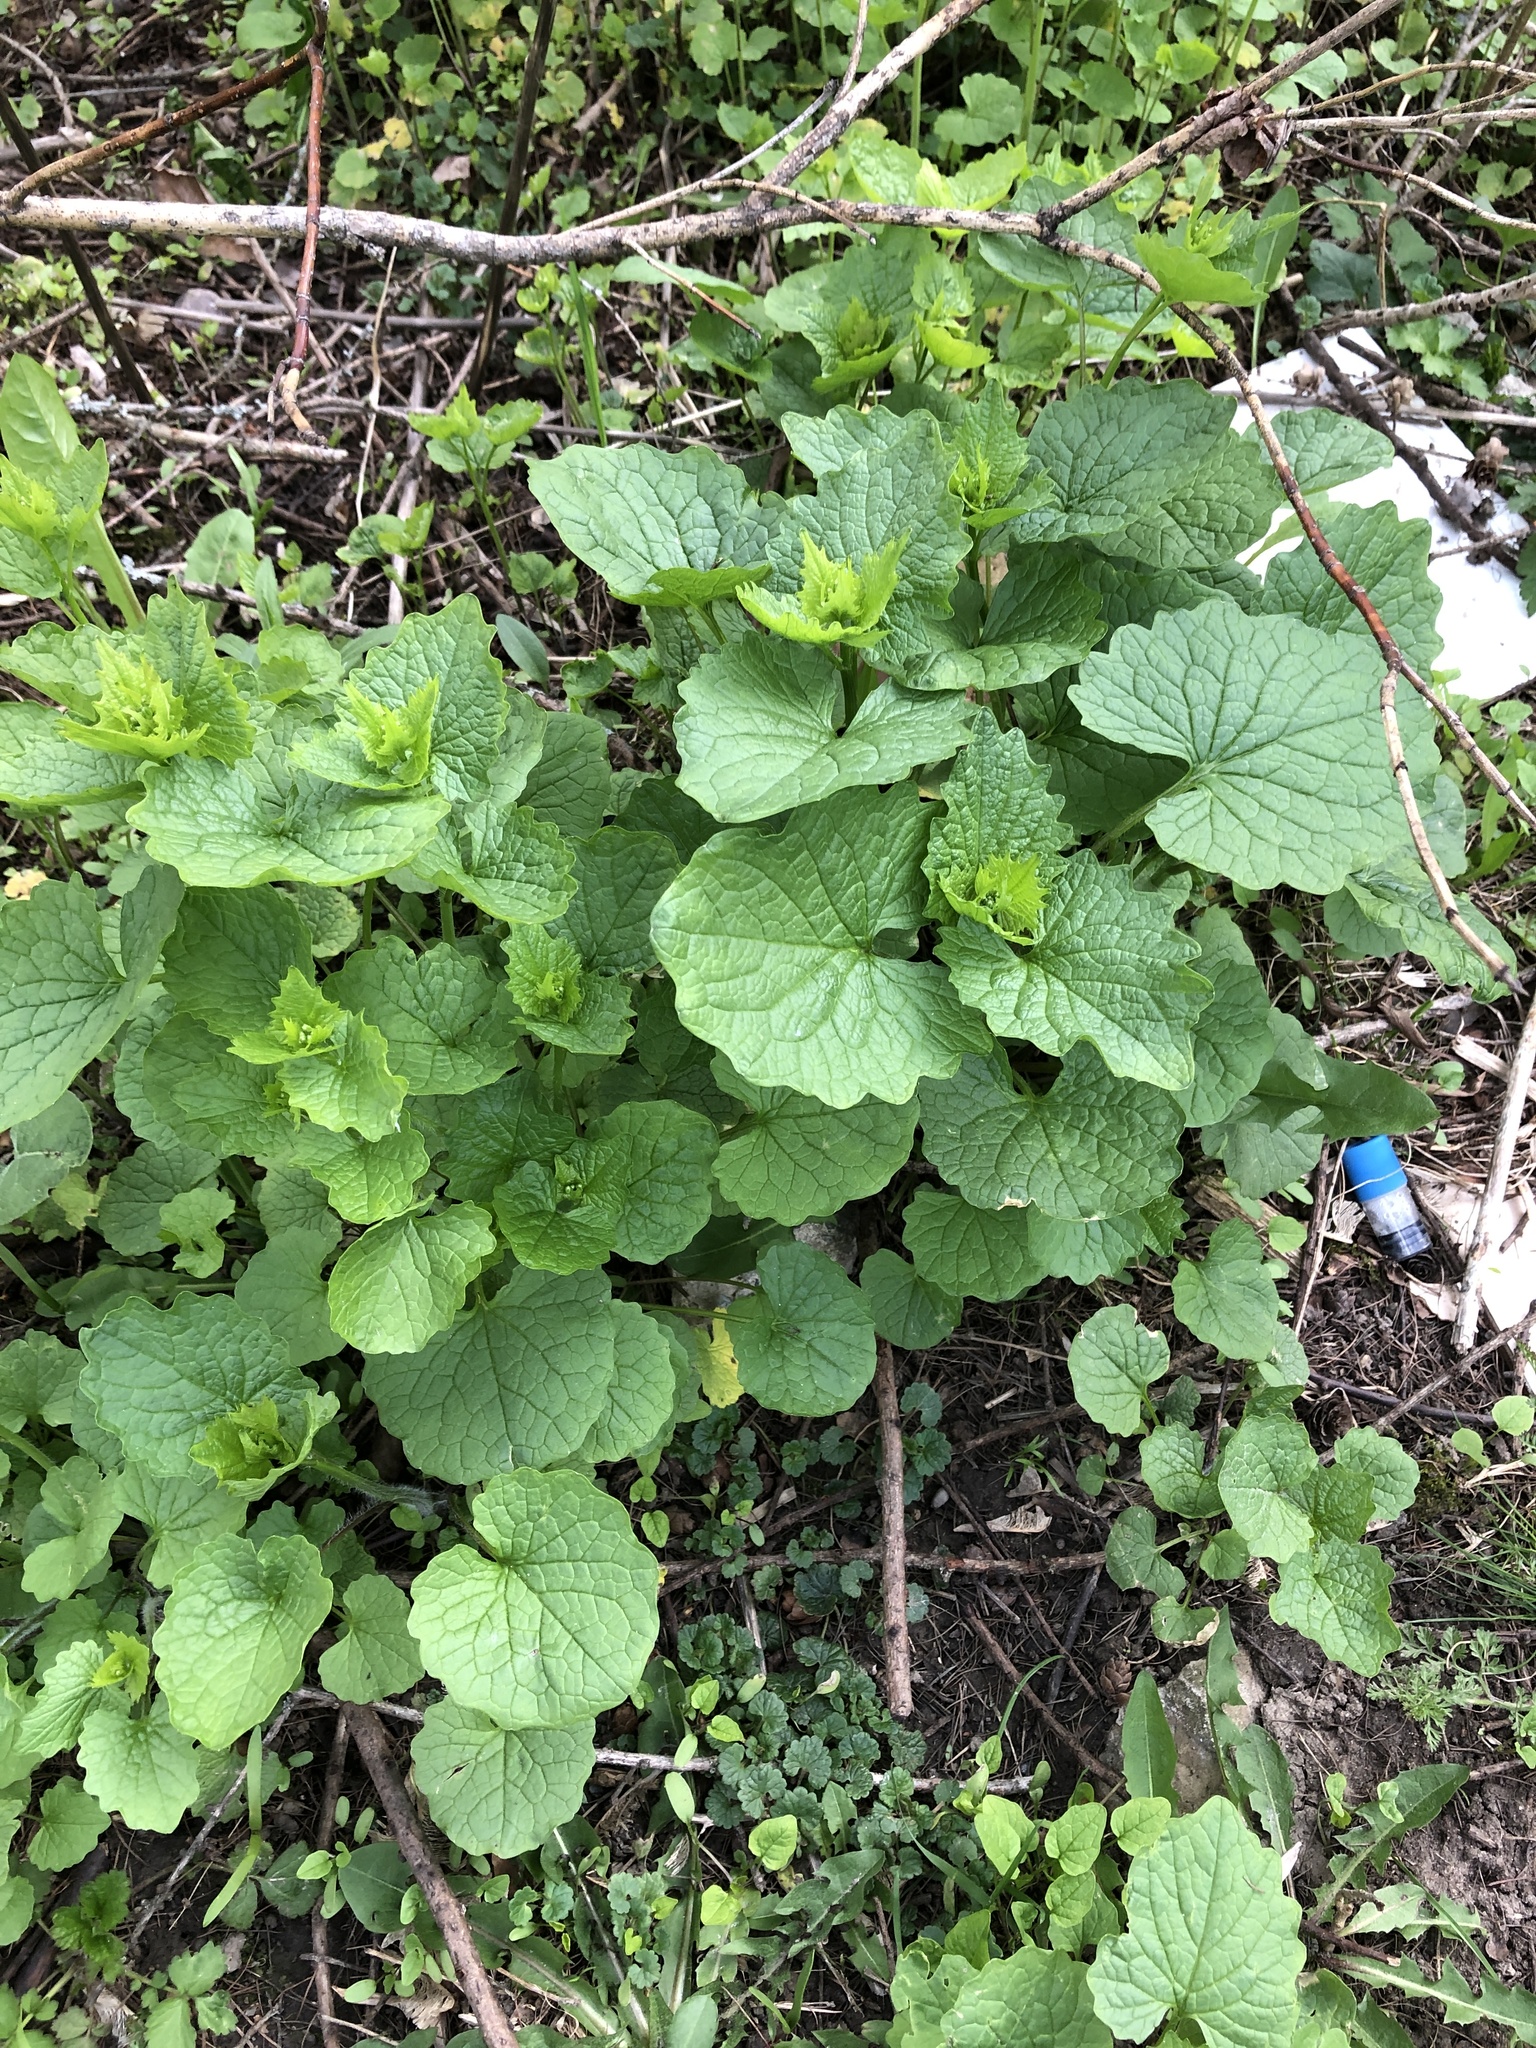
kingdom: Plantae
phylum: Tracheophyta
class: Magnoliopsida
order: Brassicales
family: Brassicaceae
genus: Alliaria
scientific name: Alliaria petiolata
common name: Garlic mustard
